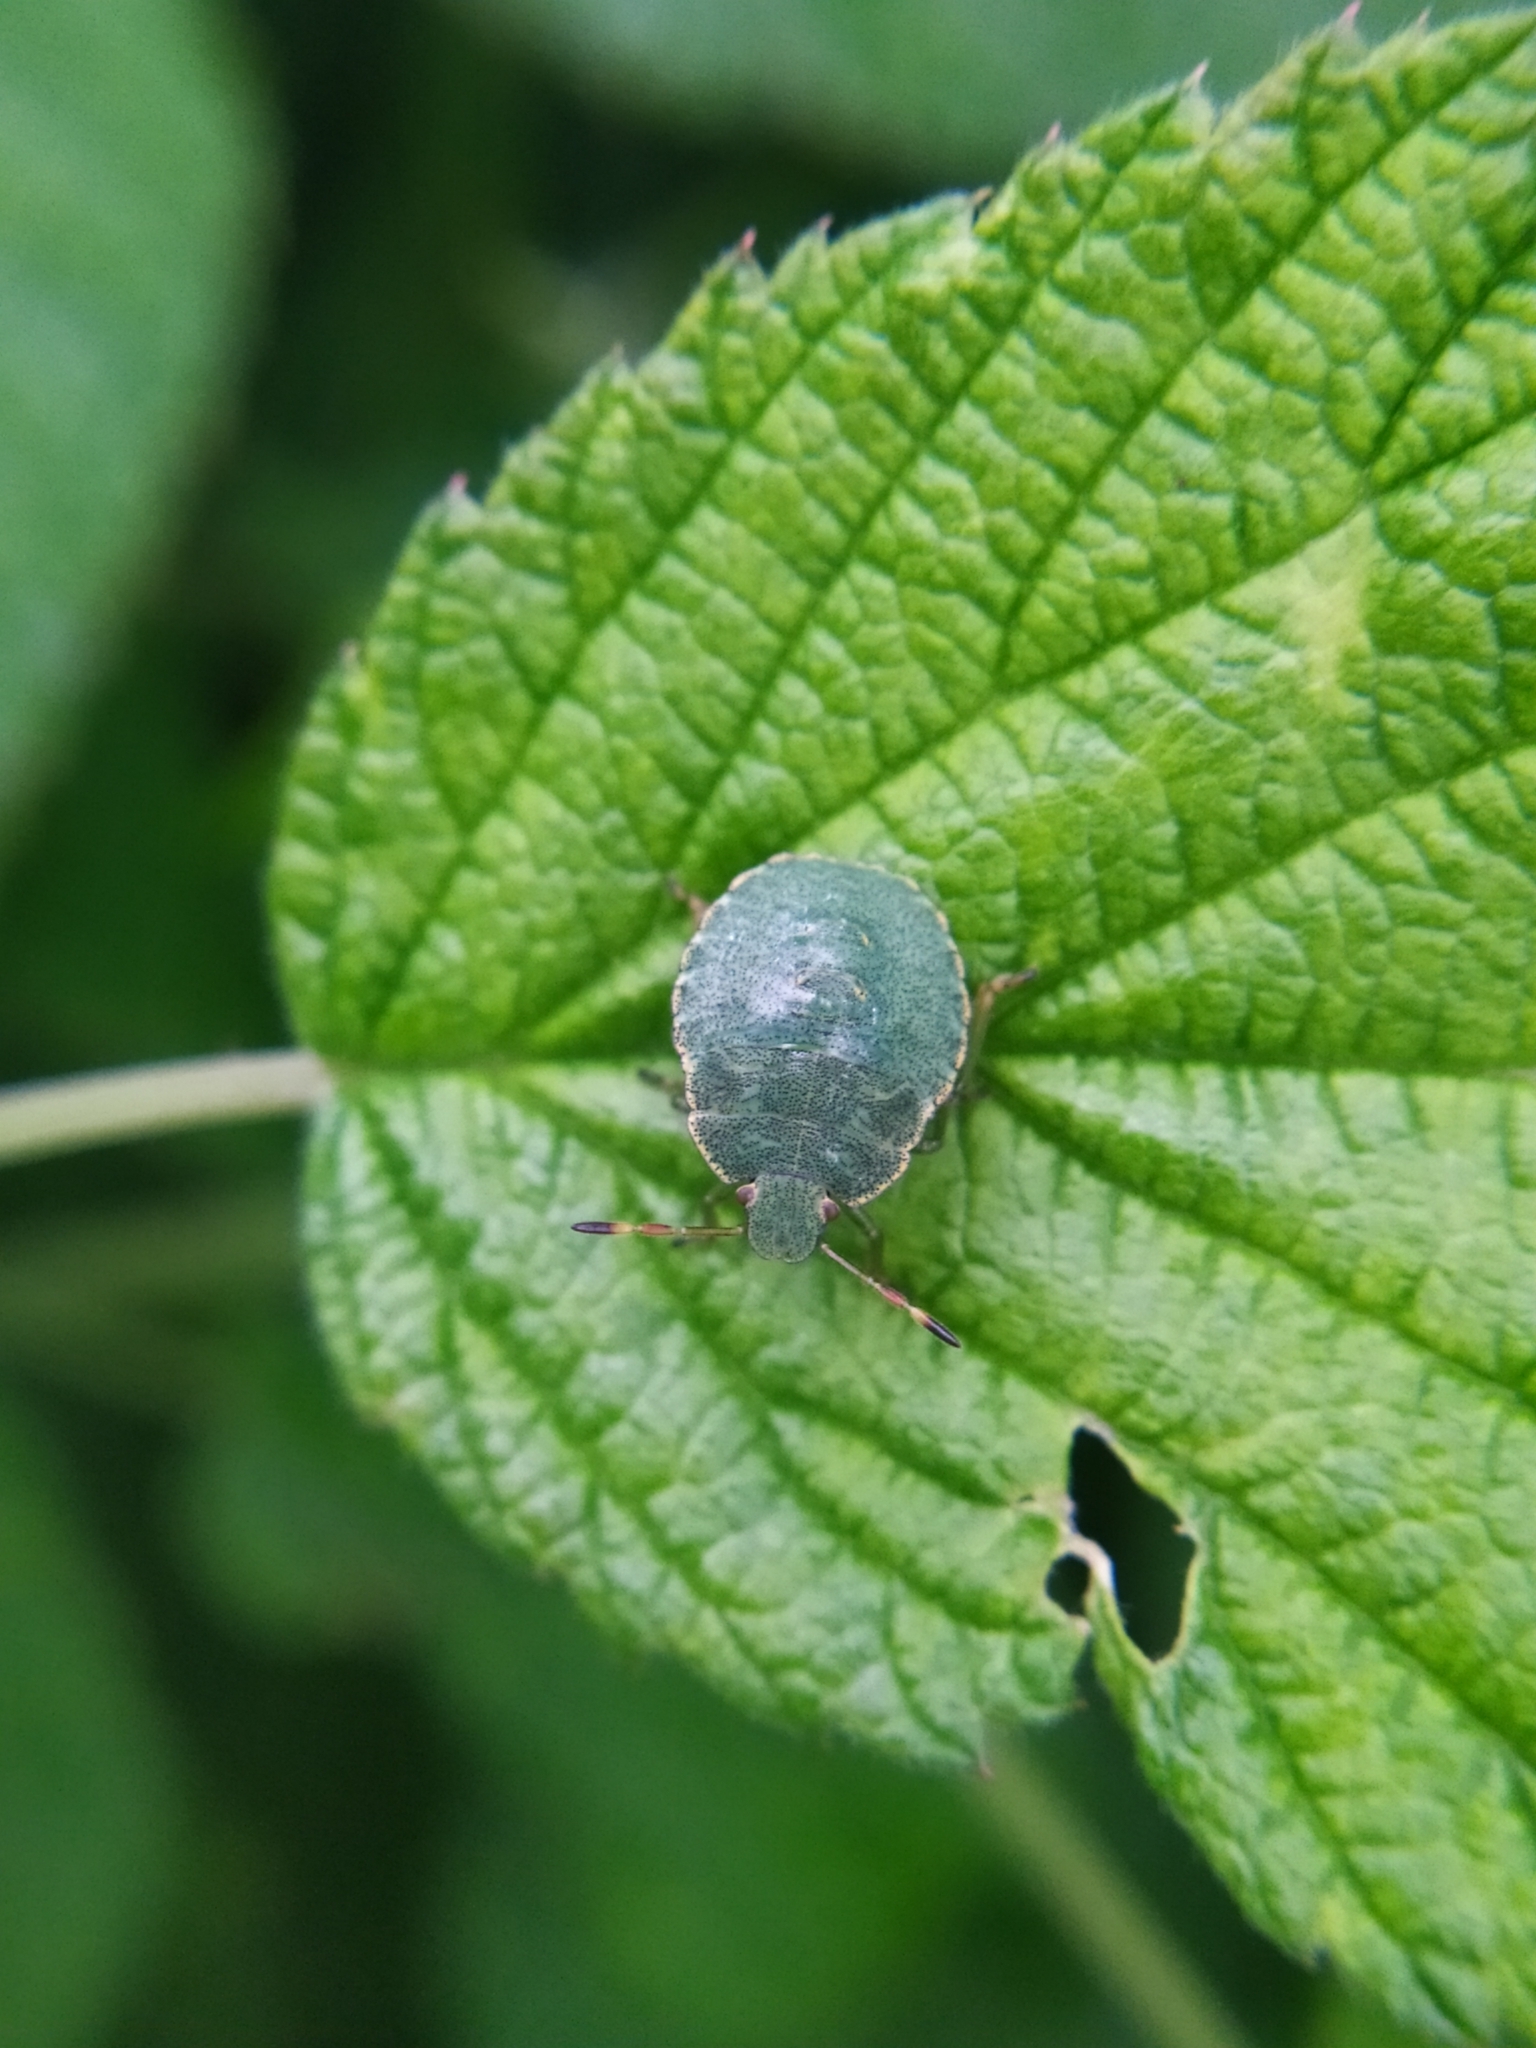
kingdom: Animalia
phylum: Arthropoda
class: Insecta
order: Hemiptera
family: Pentatomidae
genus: Palomena
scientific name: Palomena prasina
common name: Green shieldbug
